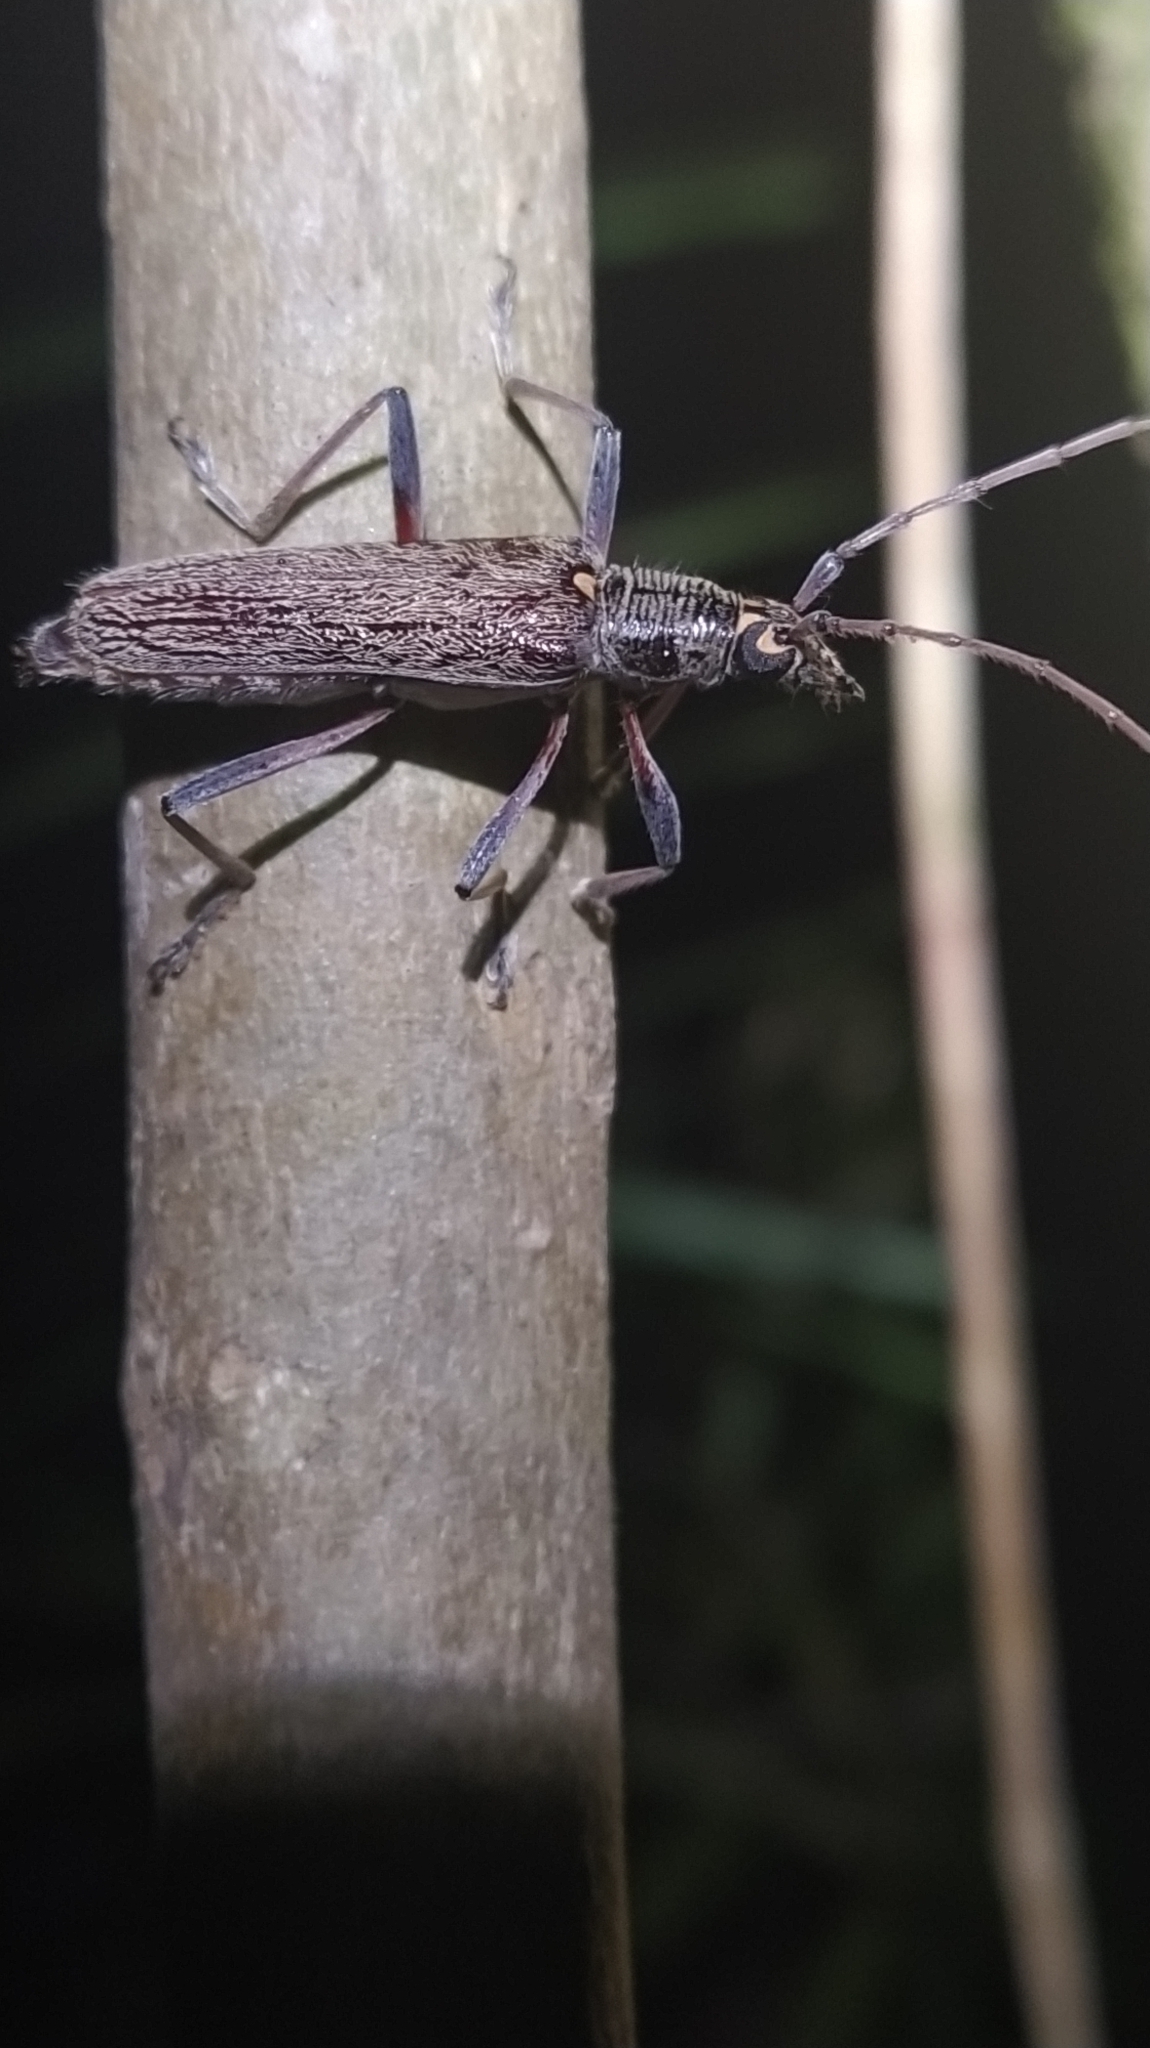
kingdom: Animalia
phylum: Arthropoda
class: Insecta
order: Coleoptera
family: Cerambycidae
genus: Oemona
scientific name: Oemona hirta
